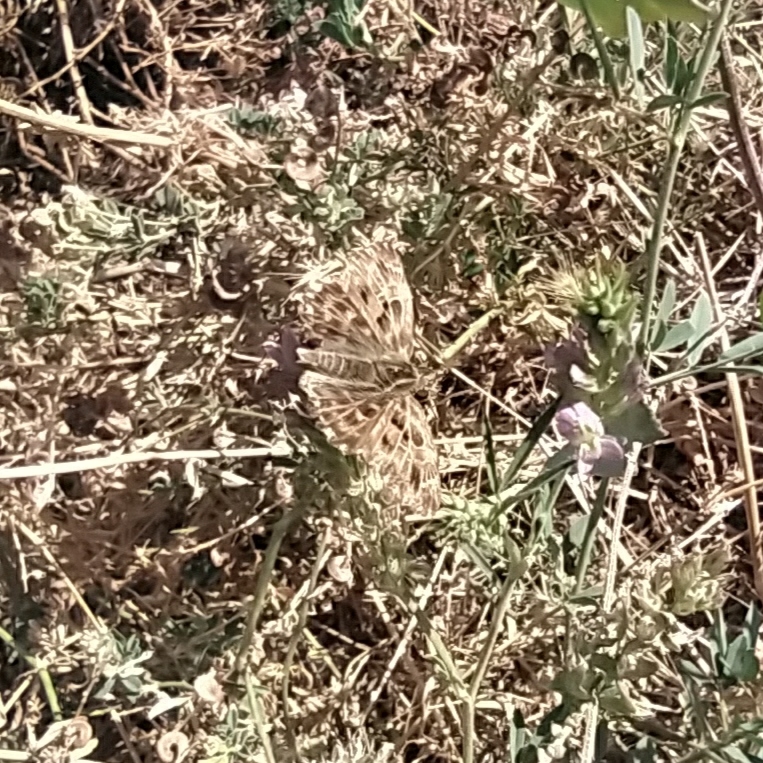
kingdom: Animalia
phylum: Arthropoda
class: Insecta
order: Lepidoptera
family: Hesperiidae
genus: Carcharodus
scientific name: Carcharodus alceae
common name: Mallow skipper
